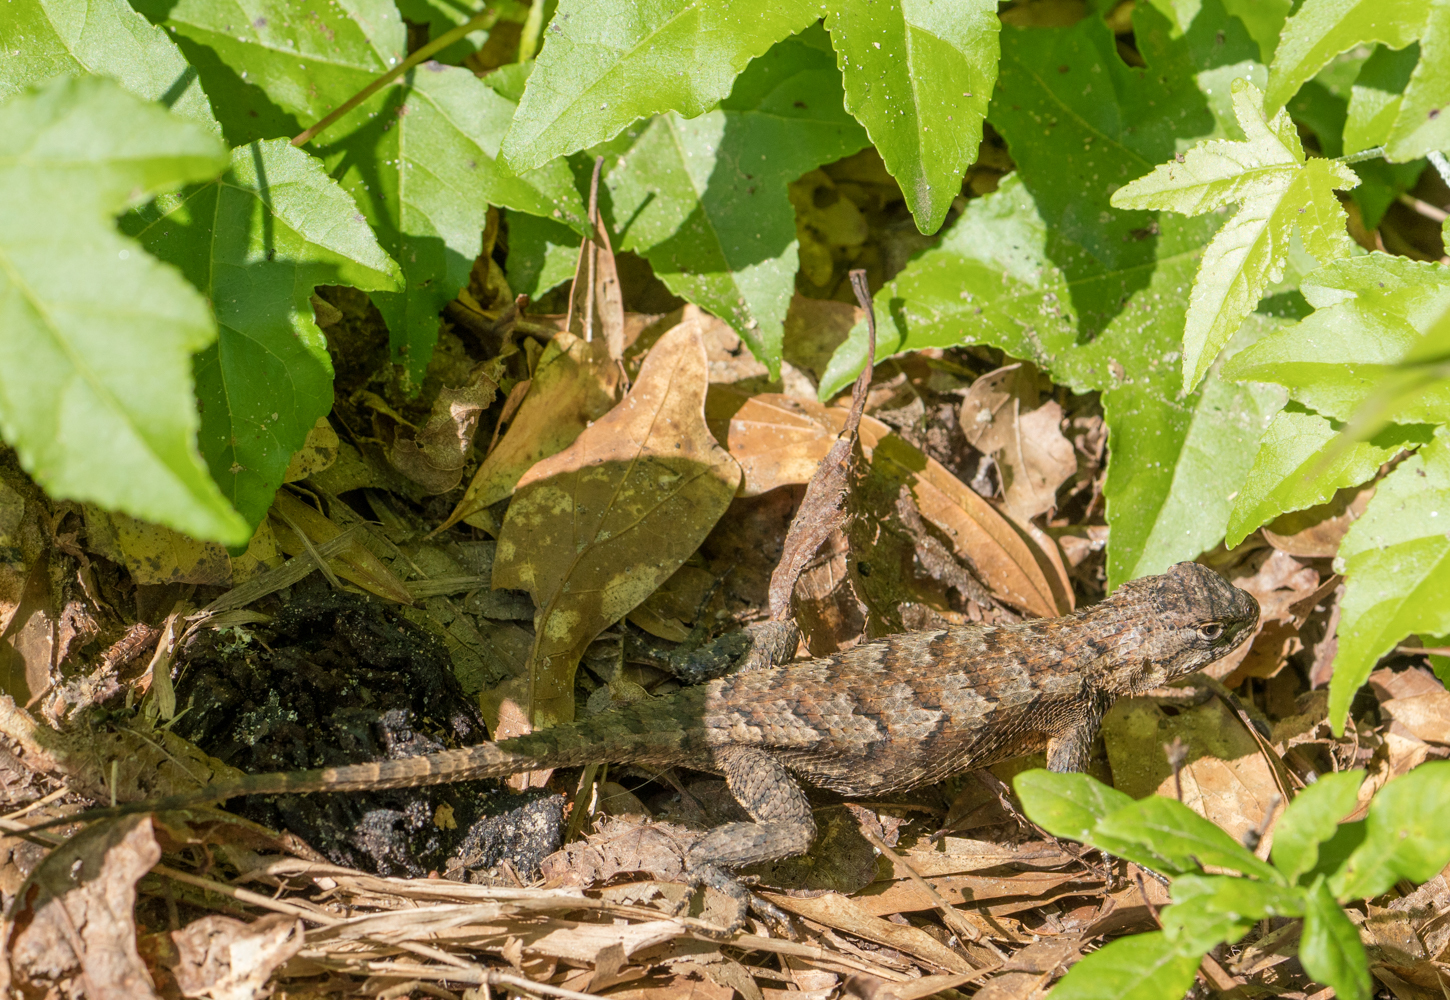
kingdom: Animalia
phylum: Chordata
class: Squamata
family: Phrynosomatidae
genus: Sceloporus
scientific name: Sceloporus undulatus
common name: Eastern fence lizard
